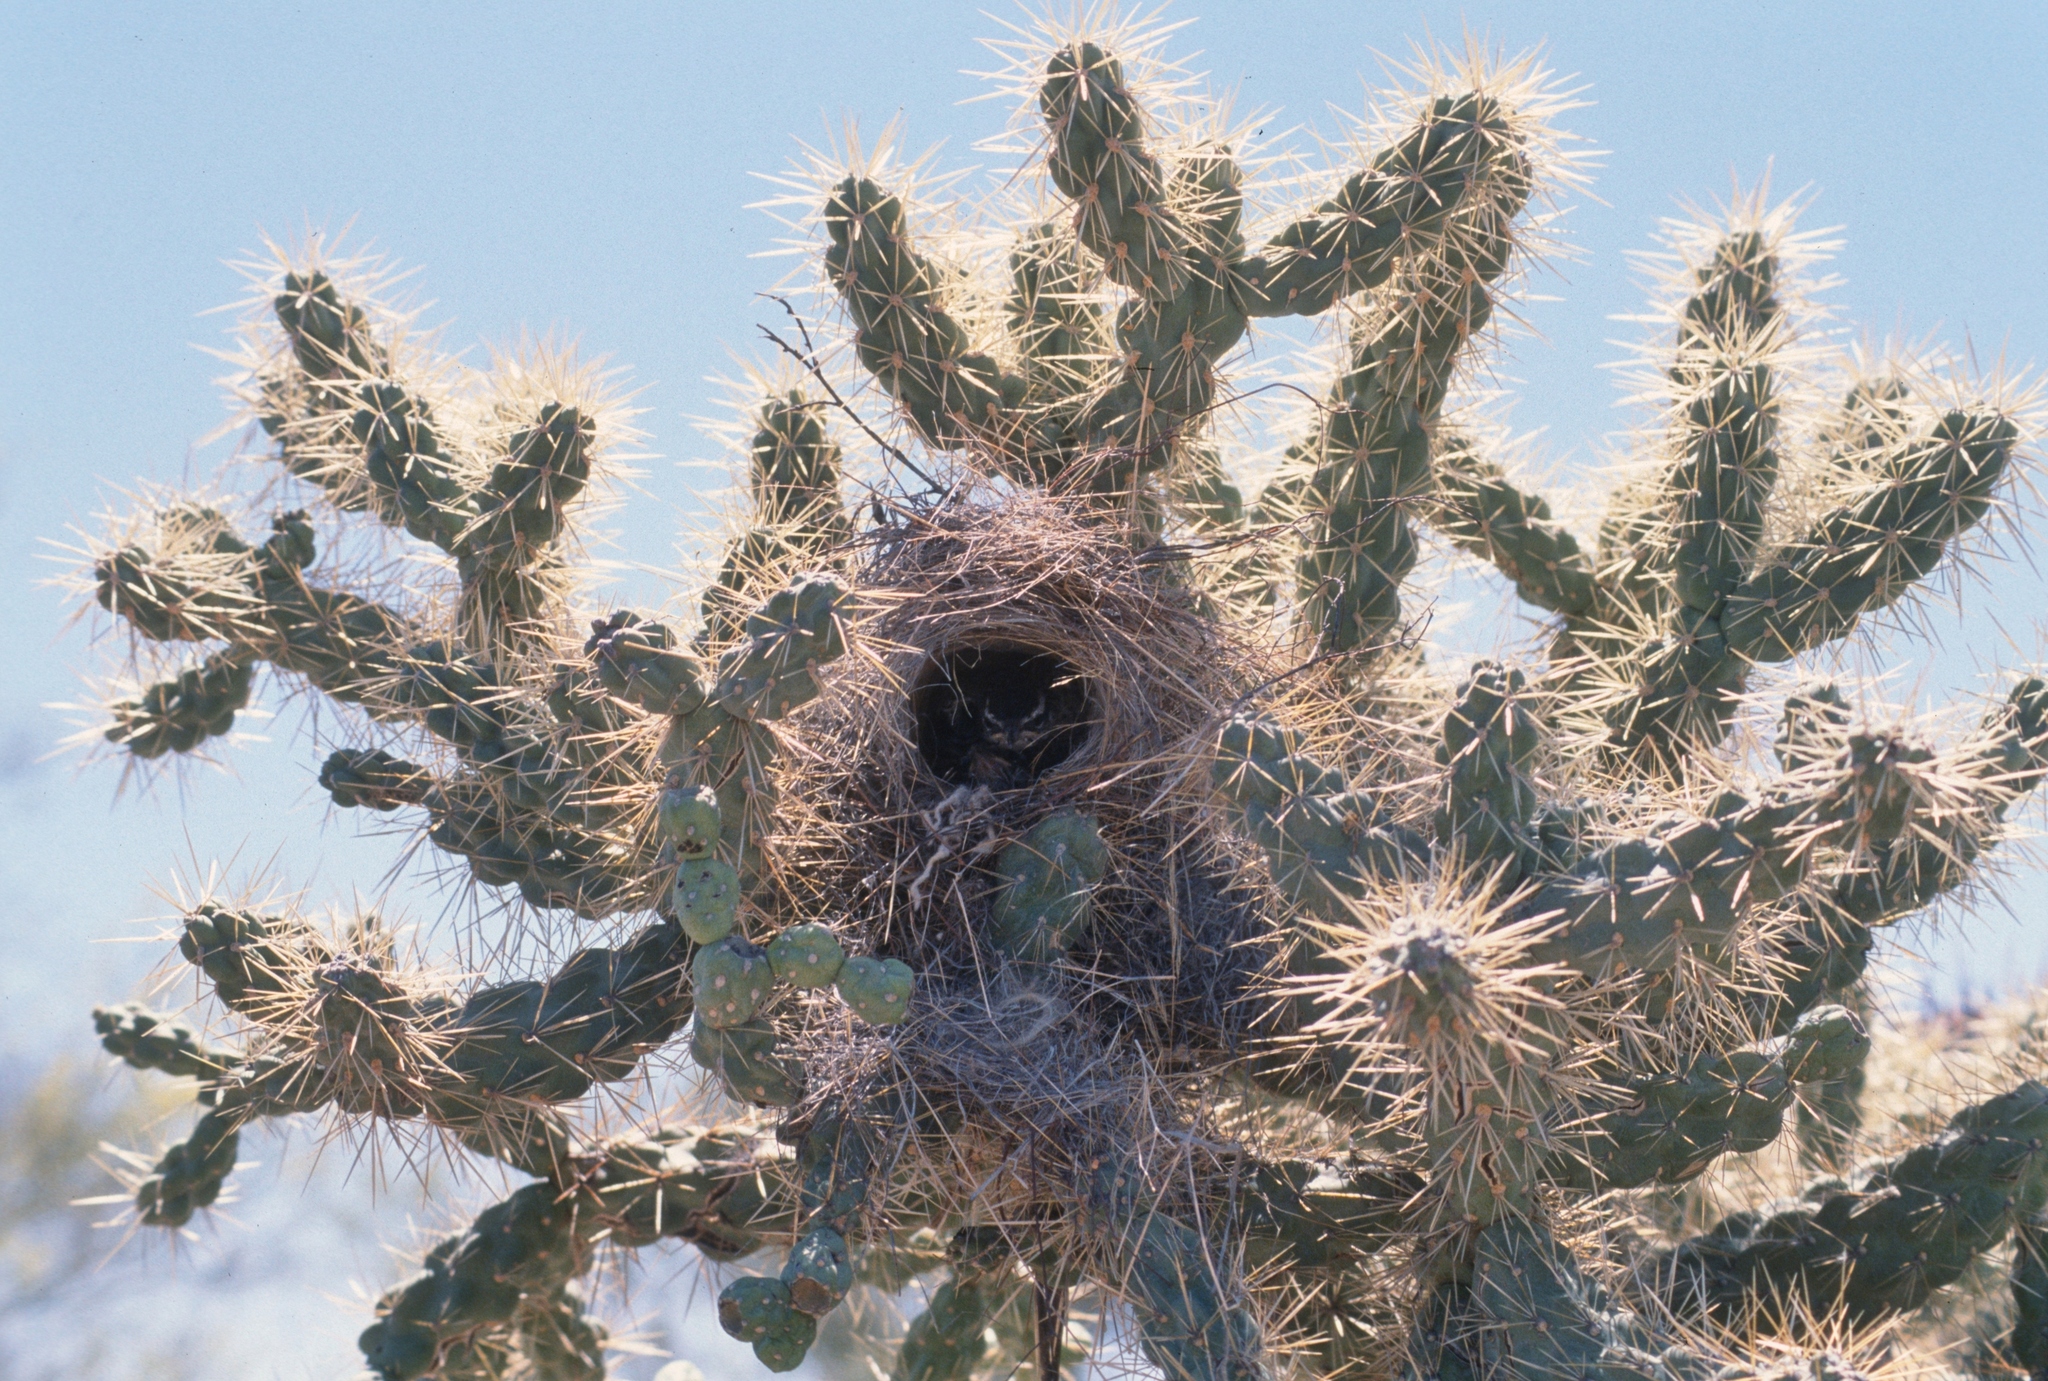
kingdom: Animalia
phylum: Chordata
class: Aves
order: Passeriformes
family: Troglodytidae
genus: Campylorhynchus
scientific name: Campylorhynchus brunneicapillus
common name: Cactus wren
